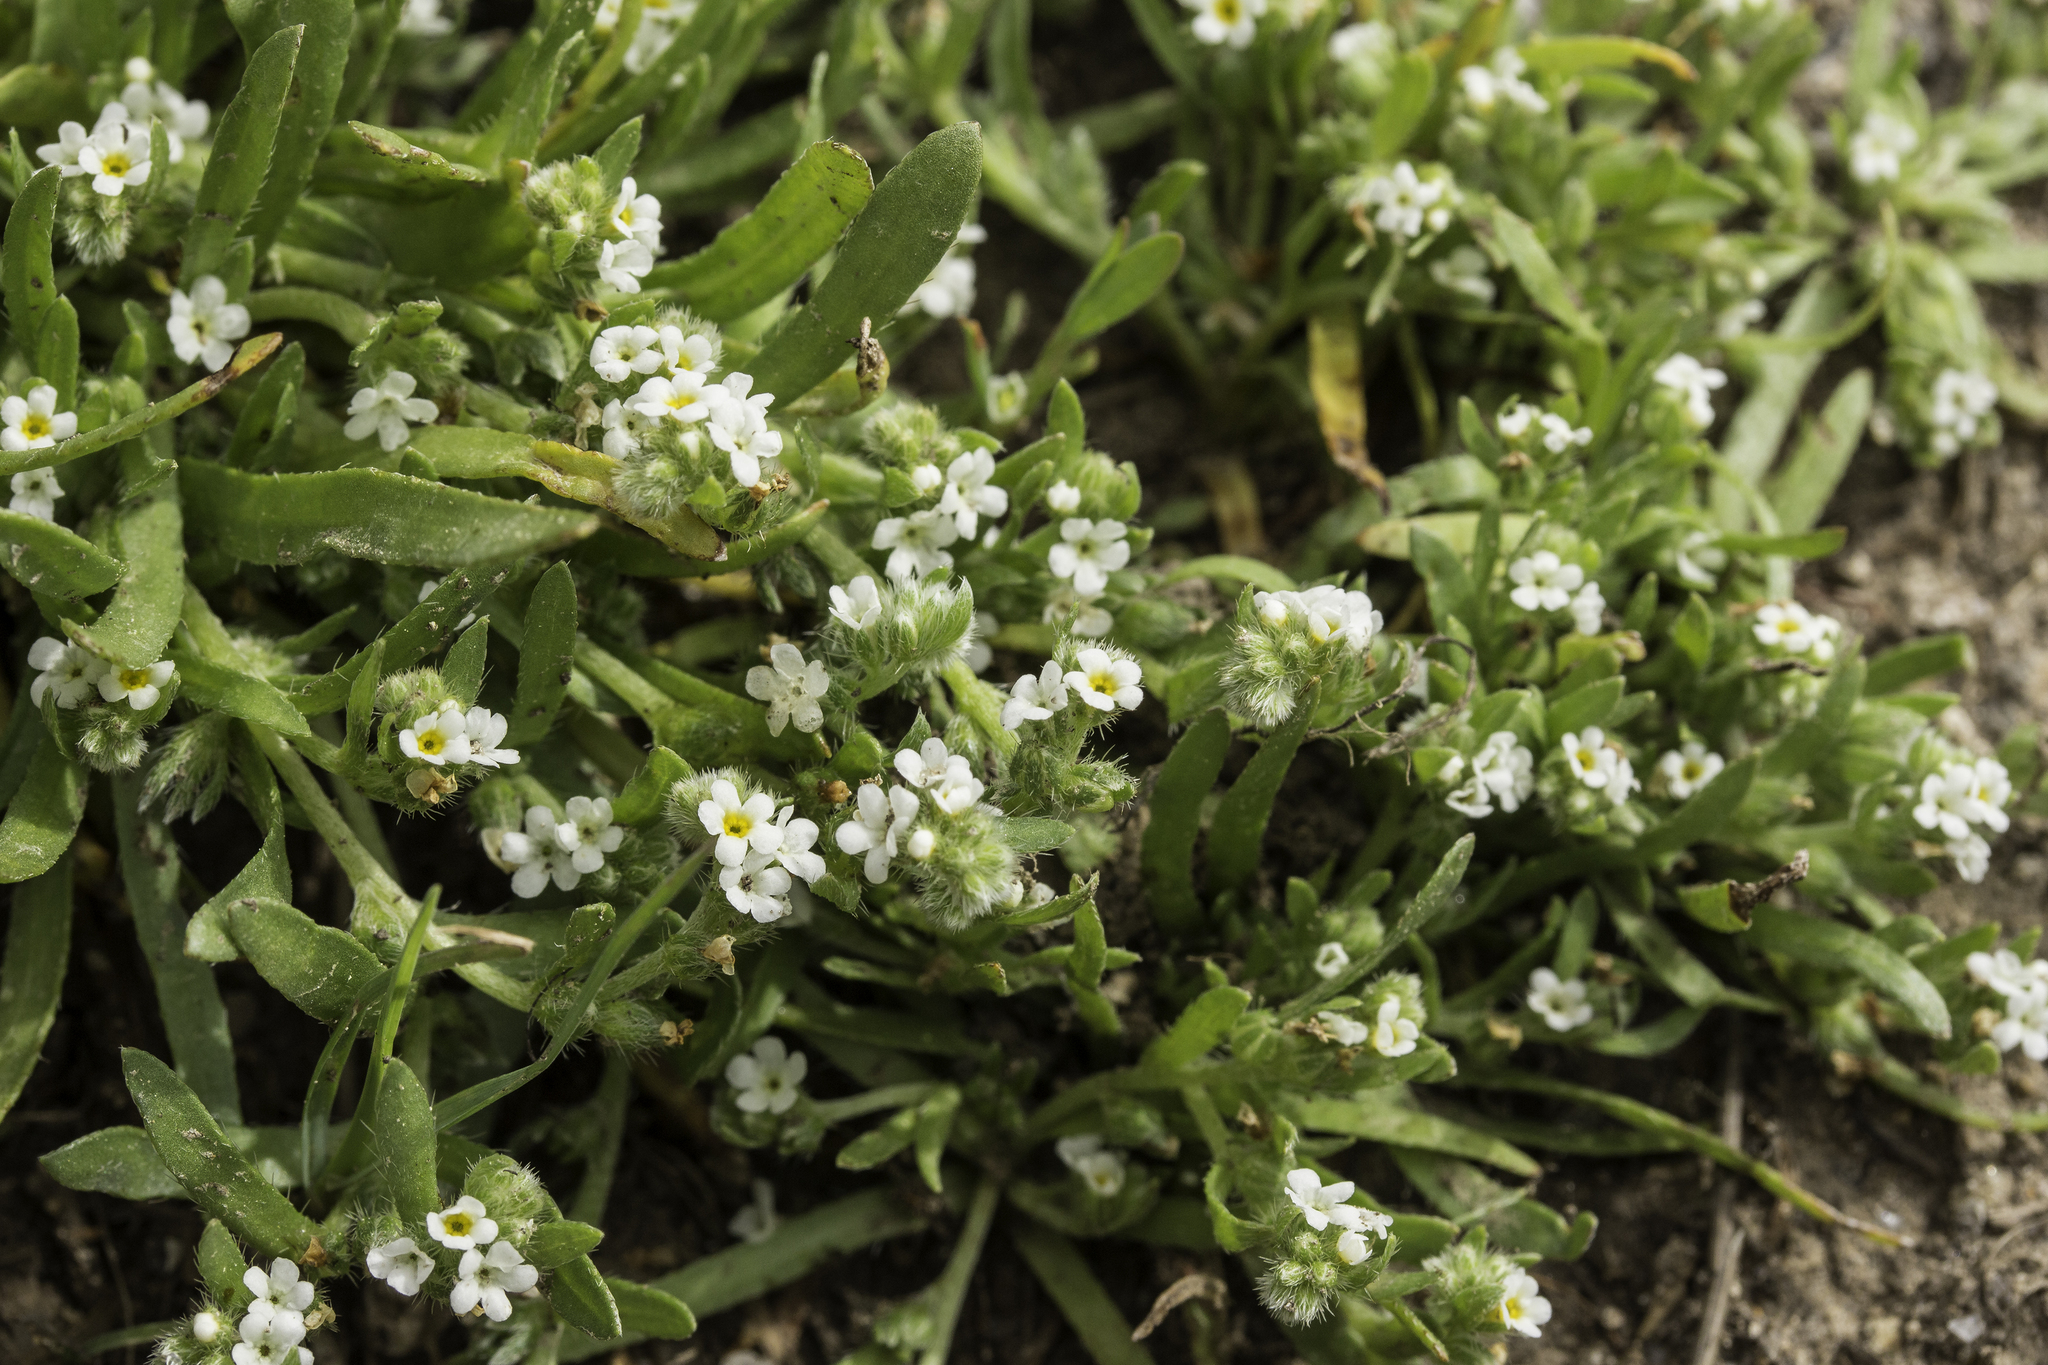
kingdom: Plantae
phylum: Tracheophyta
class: Magnoliopsida
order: Boraginales
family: Boraginaceae
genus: Plagiobothrys
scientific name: Plagiobothrys scouleri
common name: White forget-me-not
